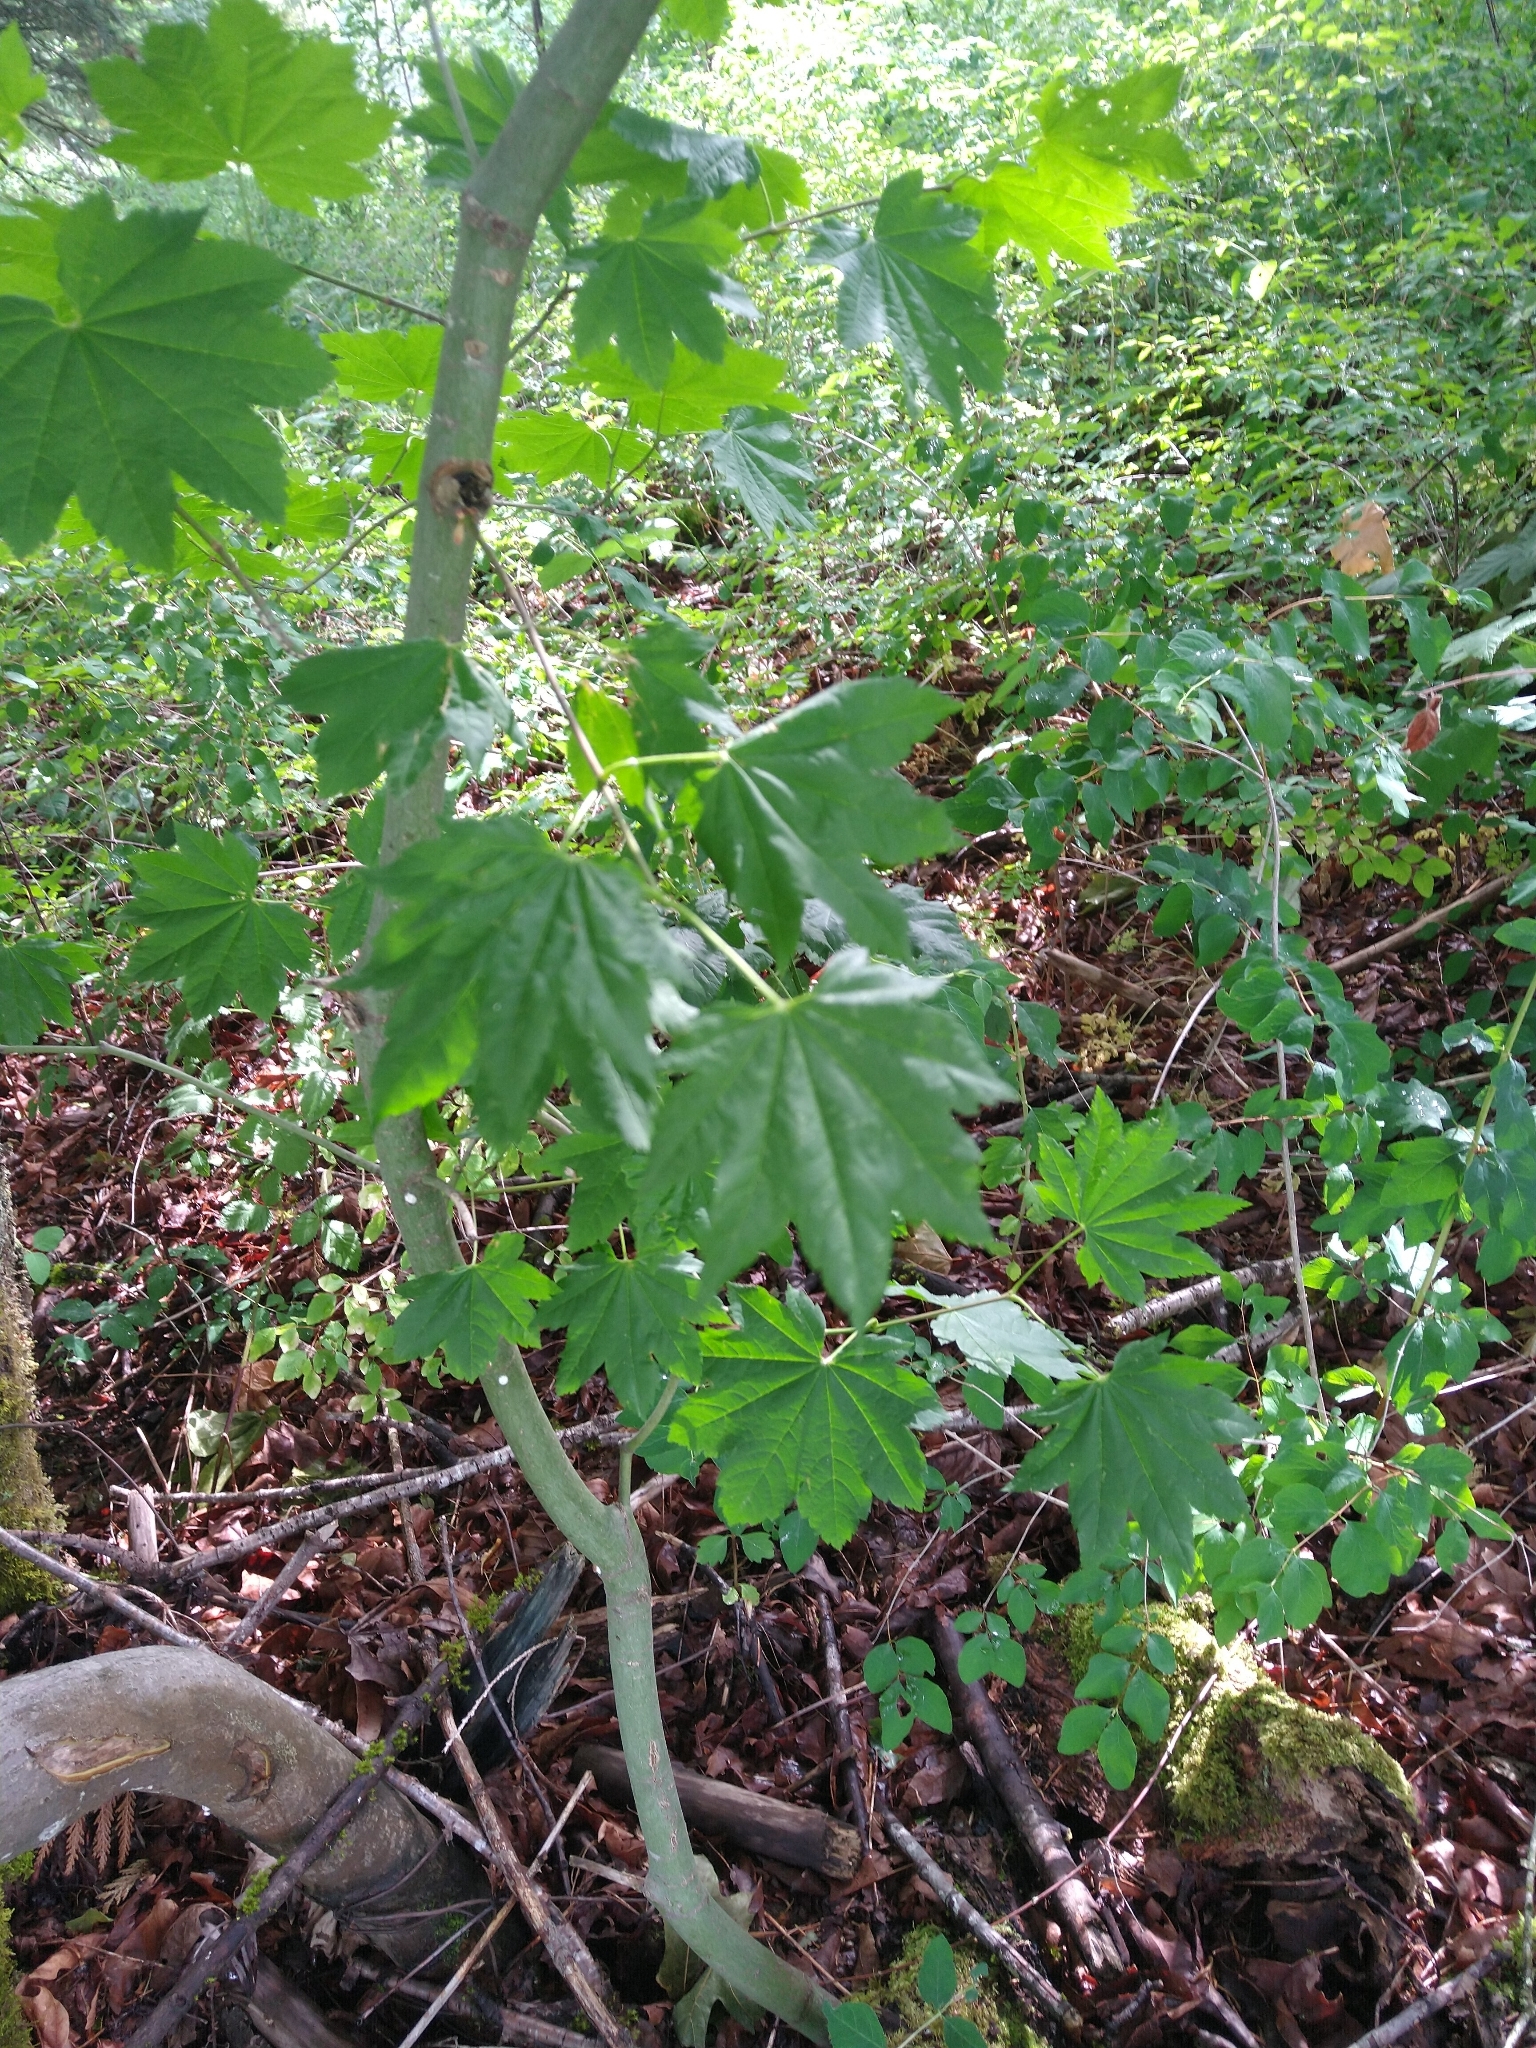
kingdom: Plantae
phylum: Tracheophyta
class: Magnoliopsida
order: Sapindales
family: Sapindaceae
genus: Acer
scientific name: Acer circinatum
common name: Vine maple
